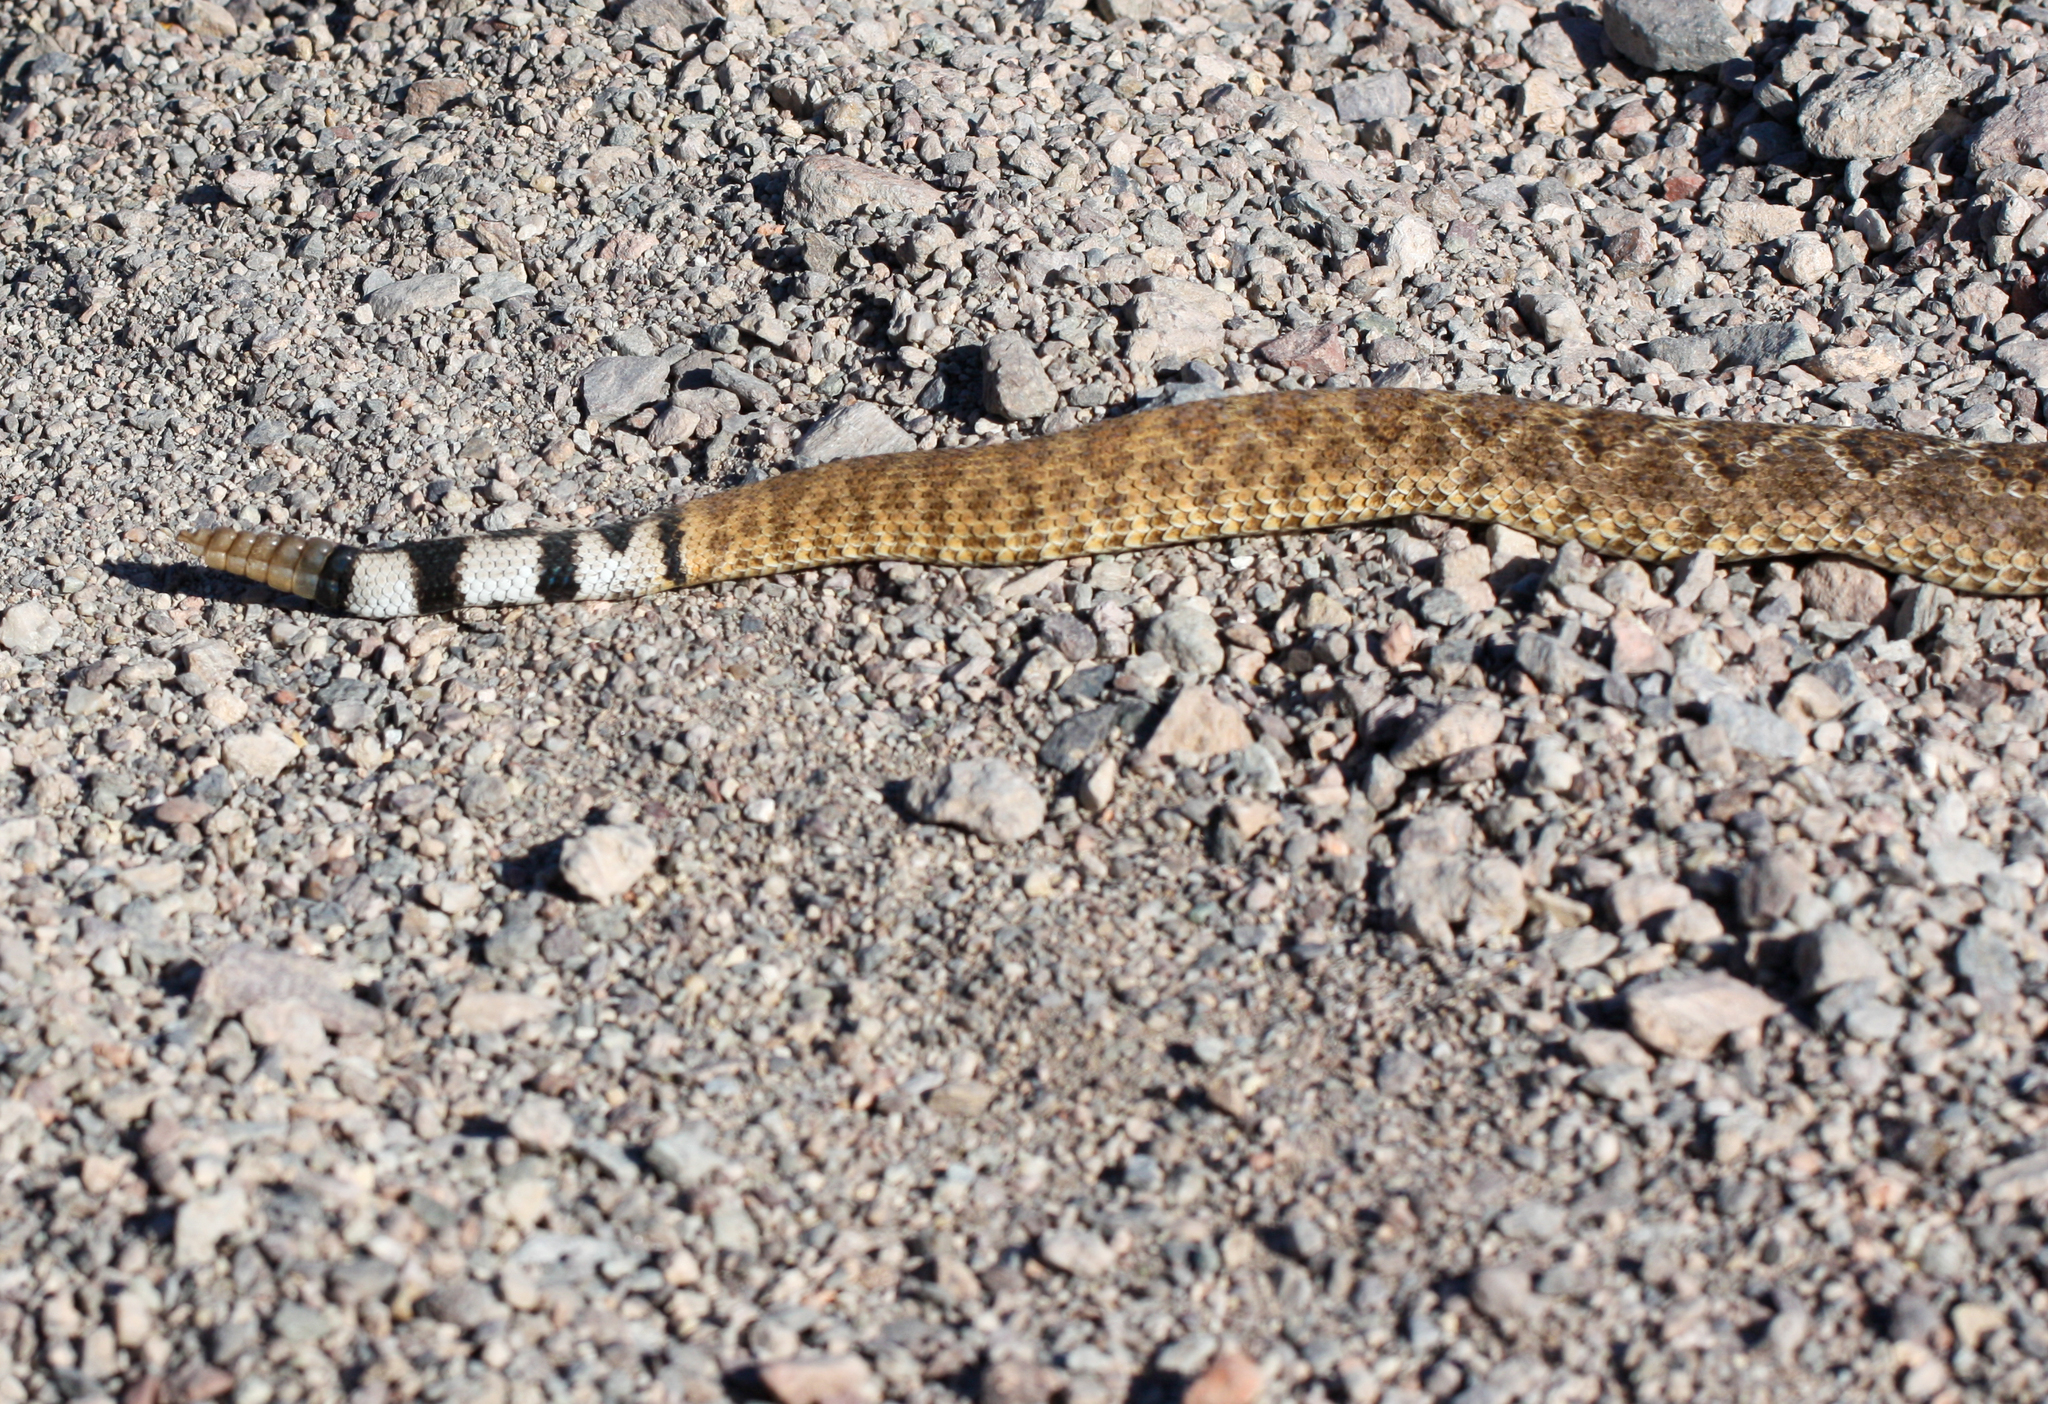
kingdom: Animalia
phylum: Chordata
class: Squamata
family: Viperidae
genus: Crotalus
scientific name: Crotalus atrox
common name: Western diamond-backed rattlesnake
